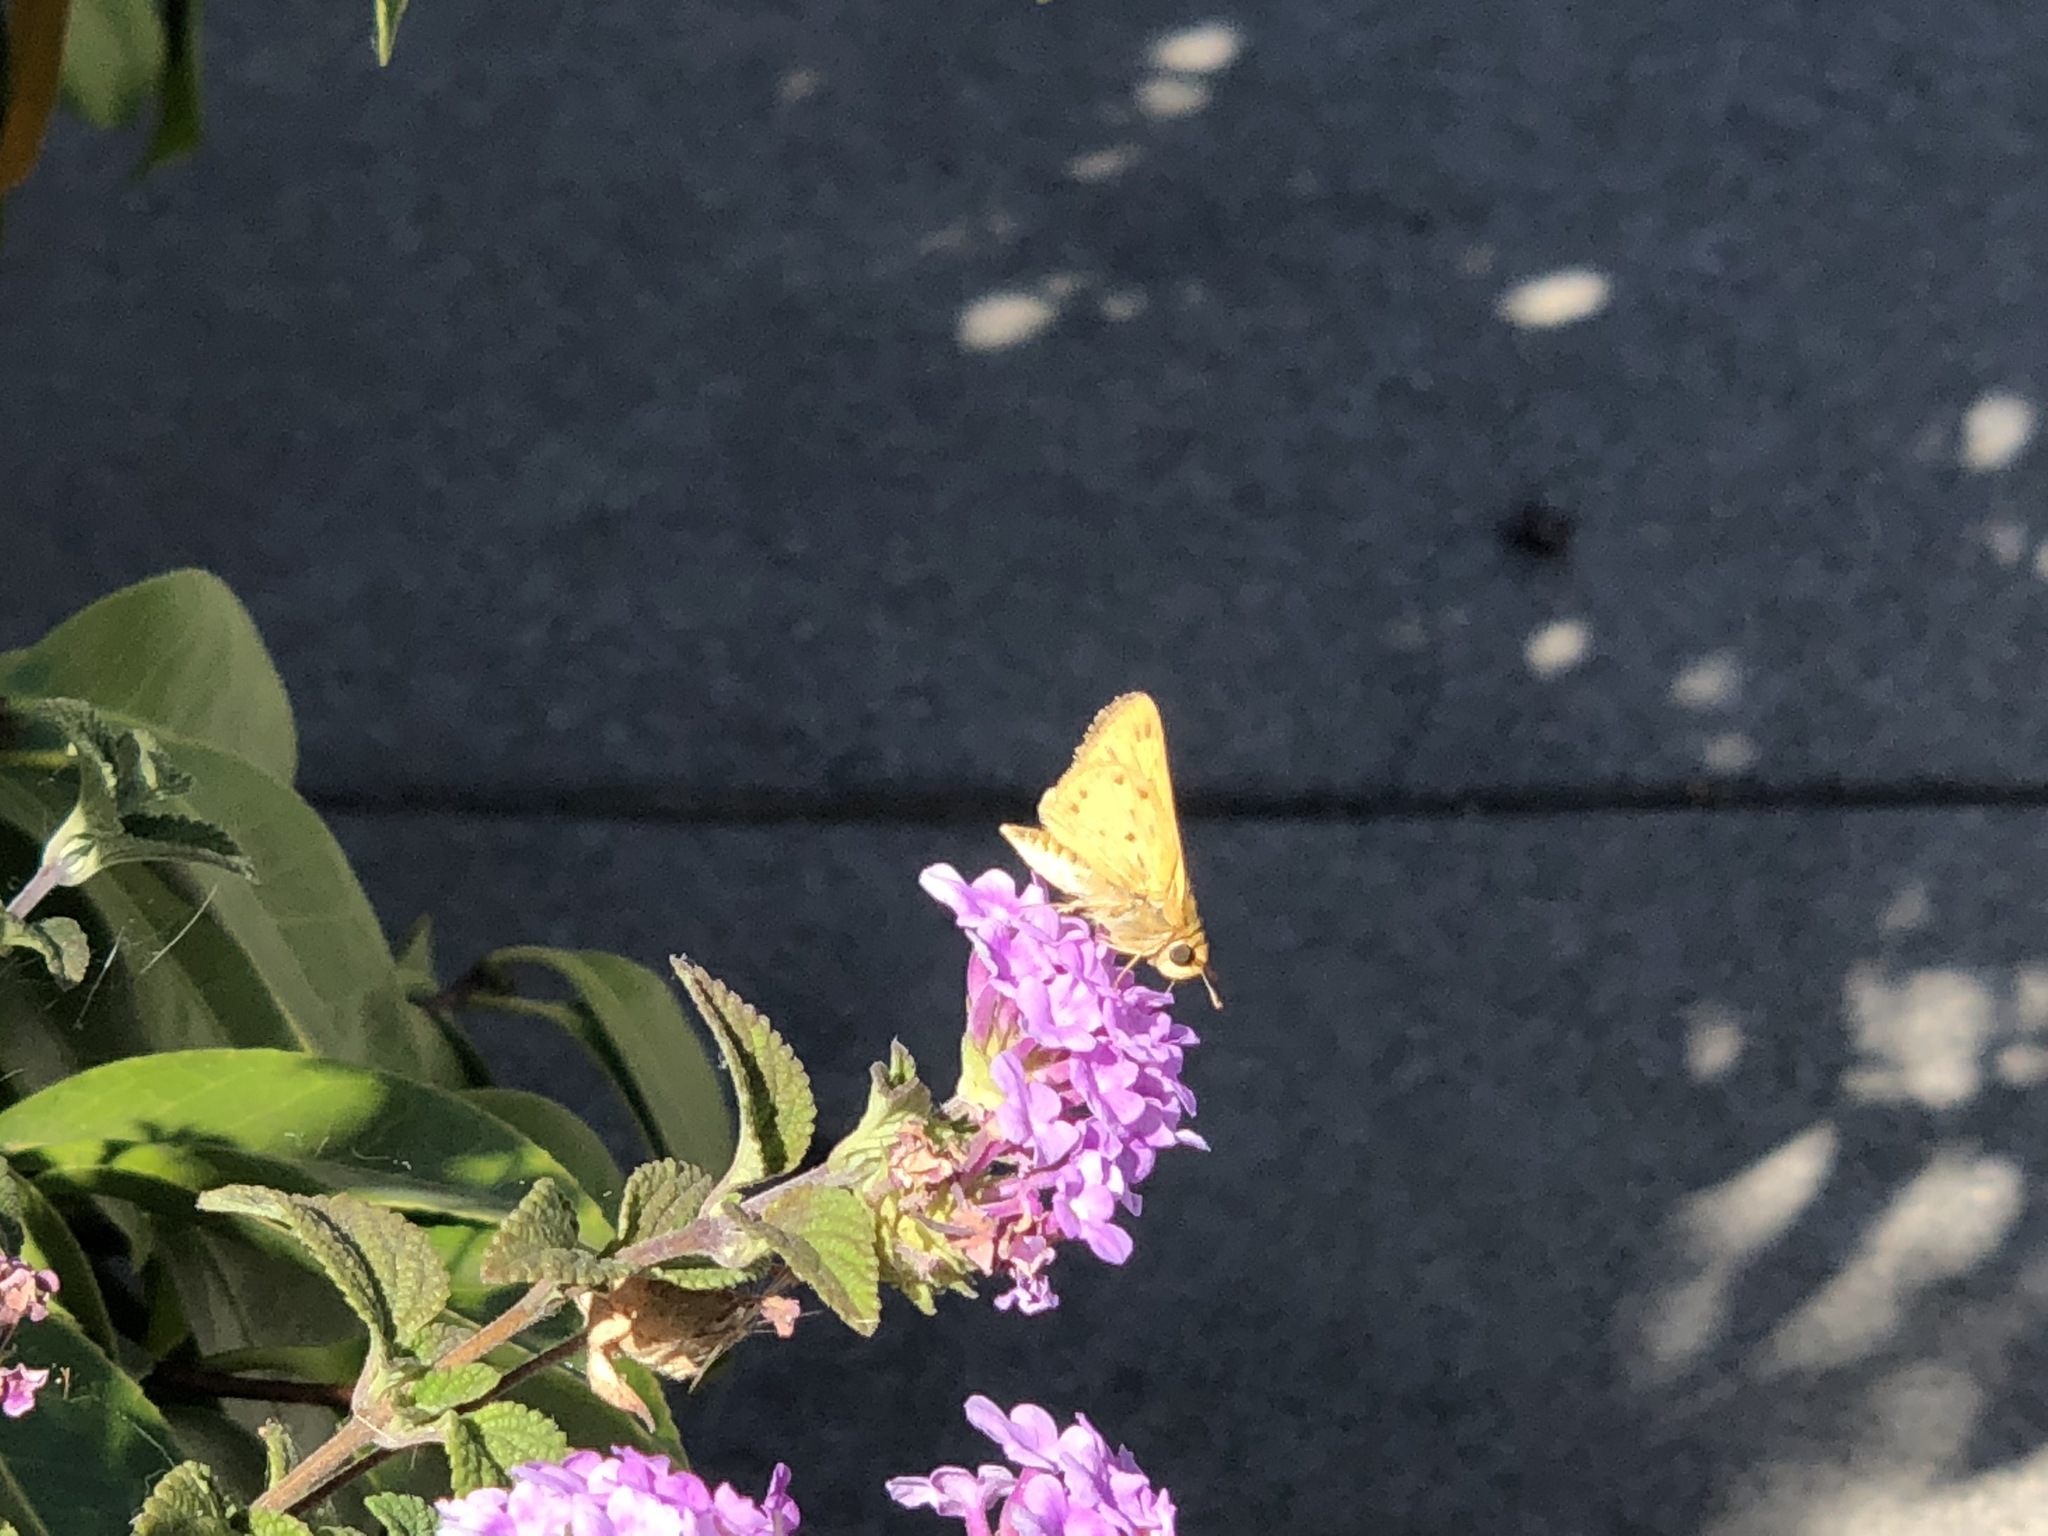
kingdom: Animalia
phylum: Arthropoda
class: Insecta
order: Lepidoptera
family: Hesperiidae
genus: Hylephila
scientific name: Hylephila phyleus
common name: Fiery skipper
